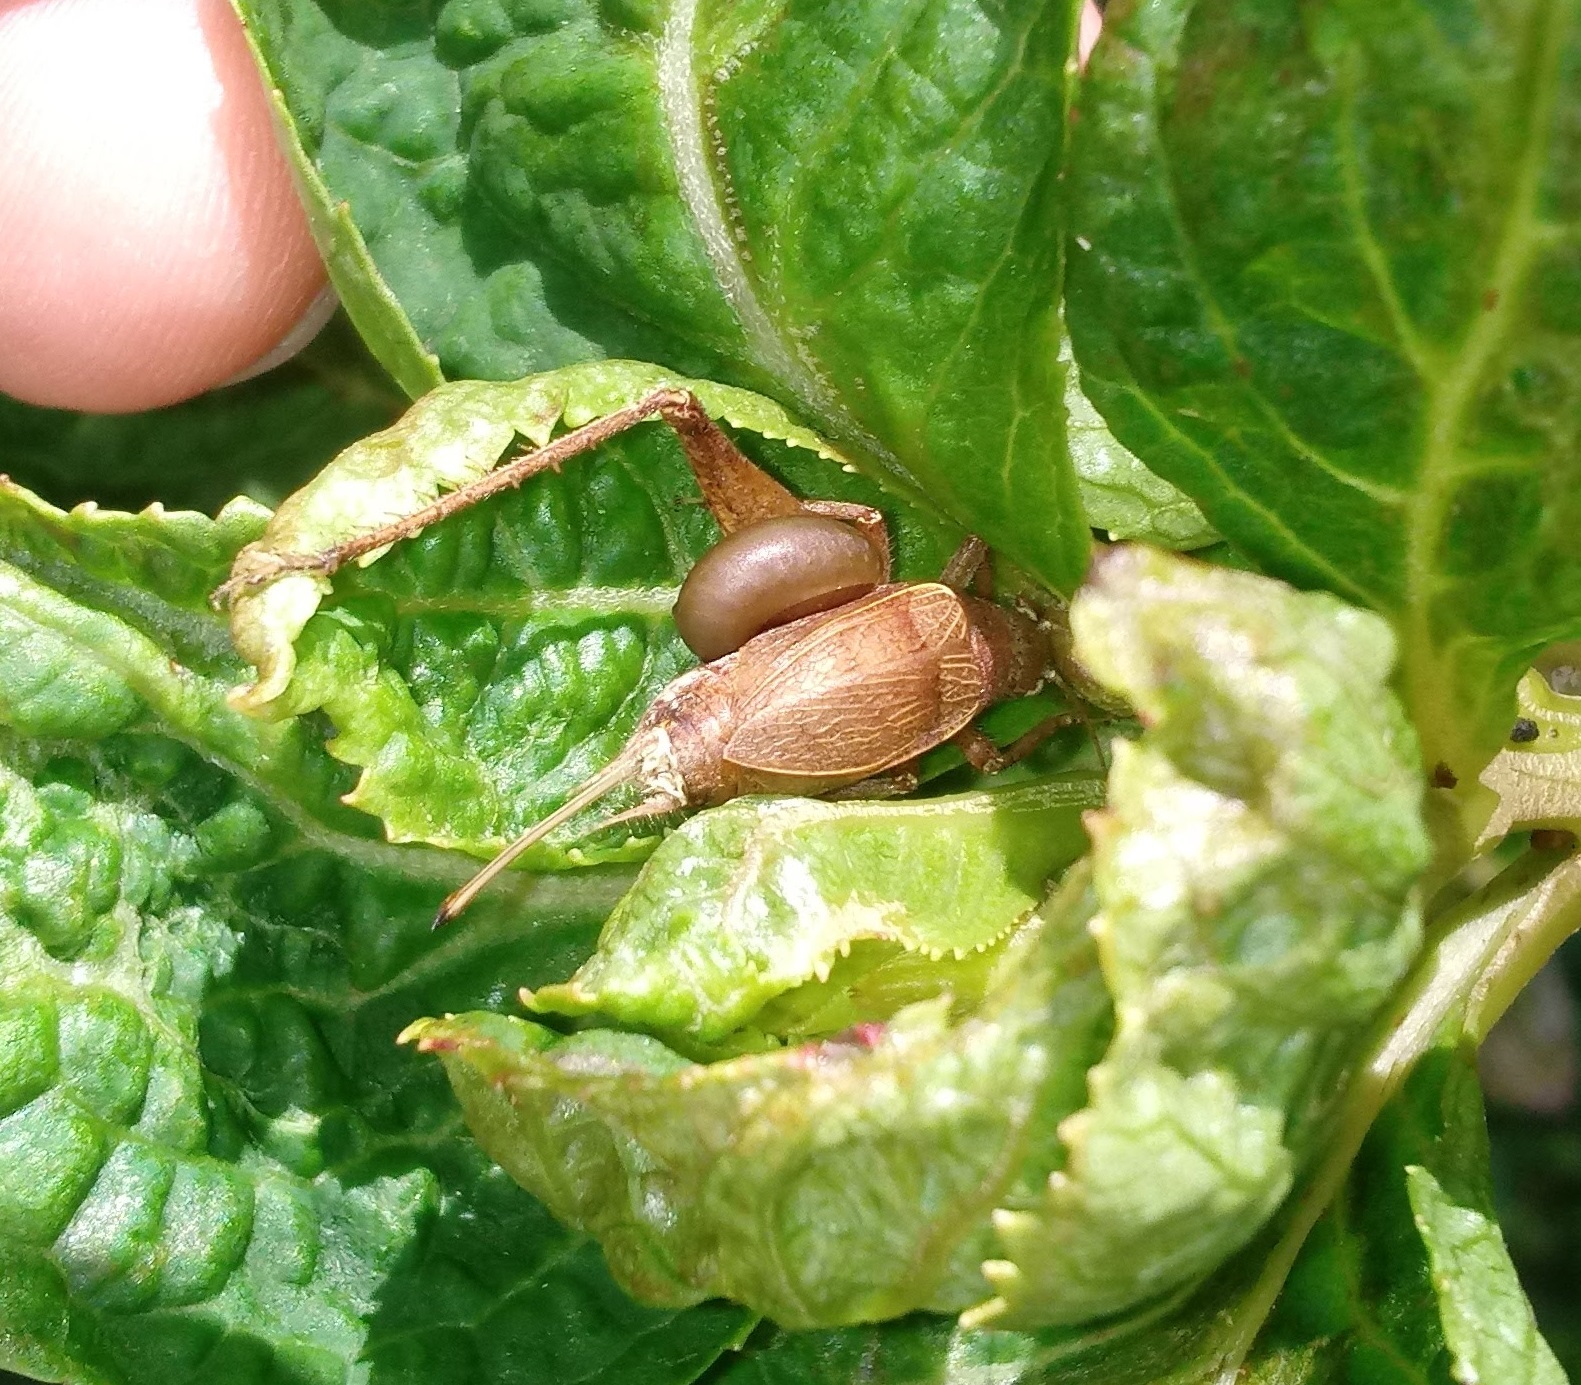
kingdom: Animalia
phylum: Arthropoda
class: Insecta
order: Orthoptera
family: Gryllidae
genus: Hapithus
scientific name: Hapithus agitator
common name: Restless bush cricket
